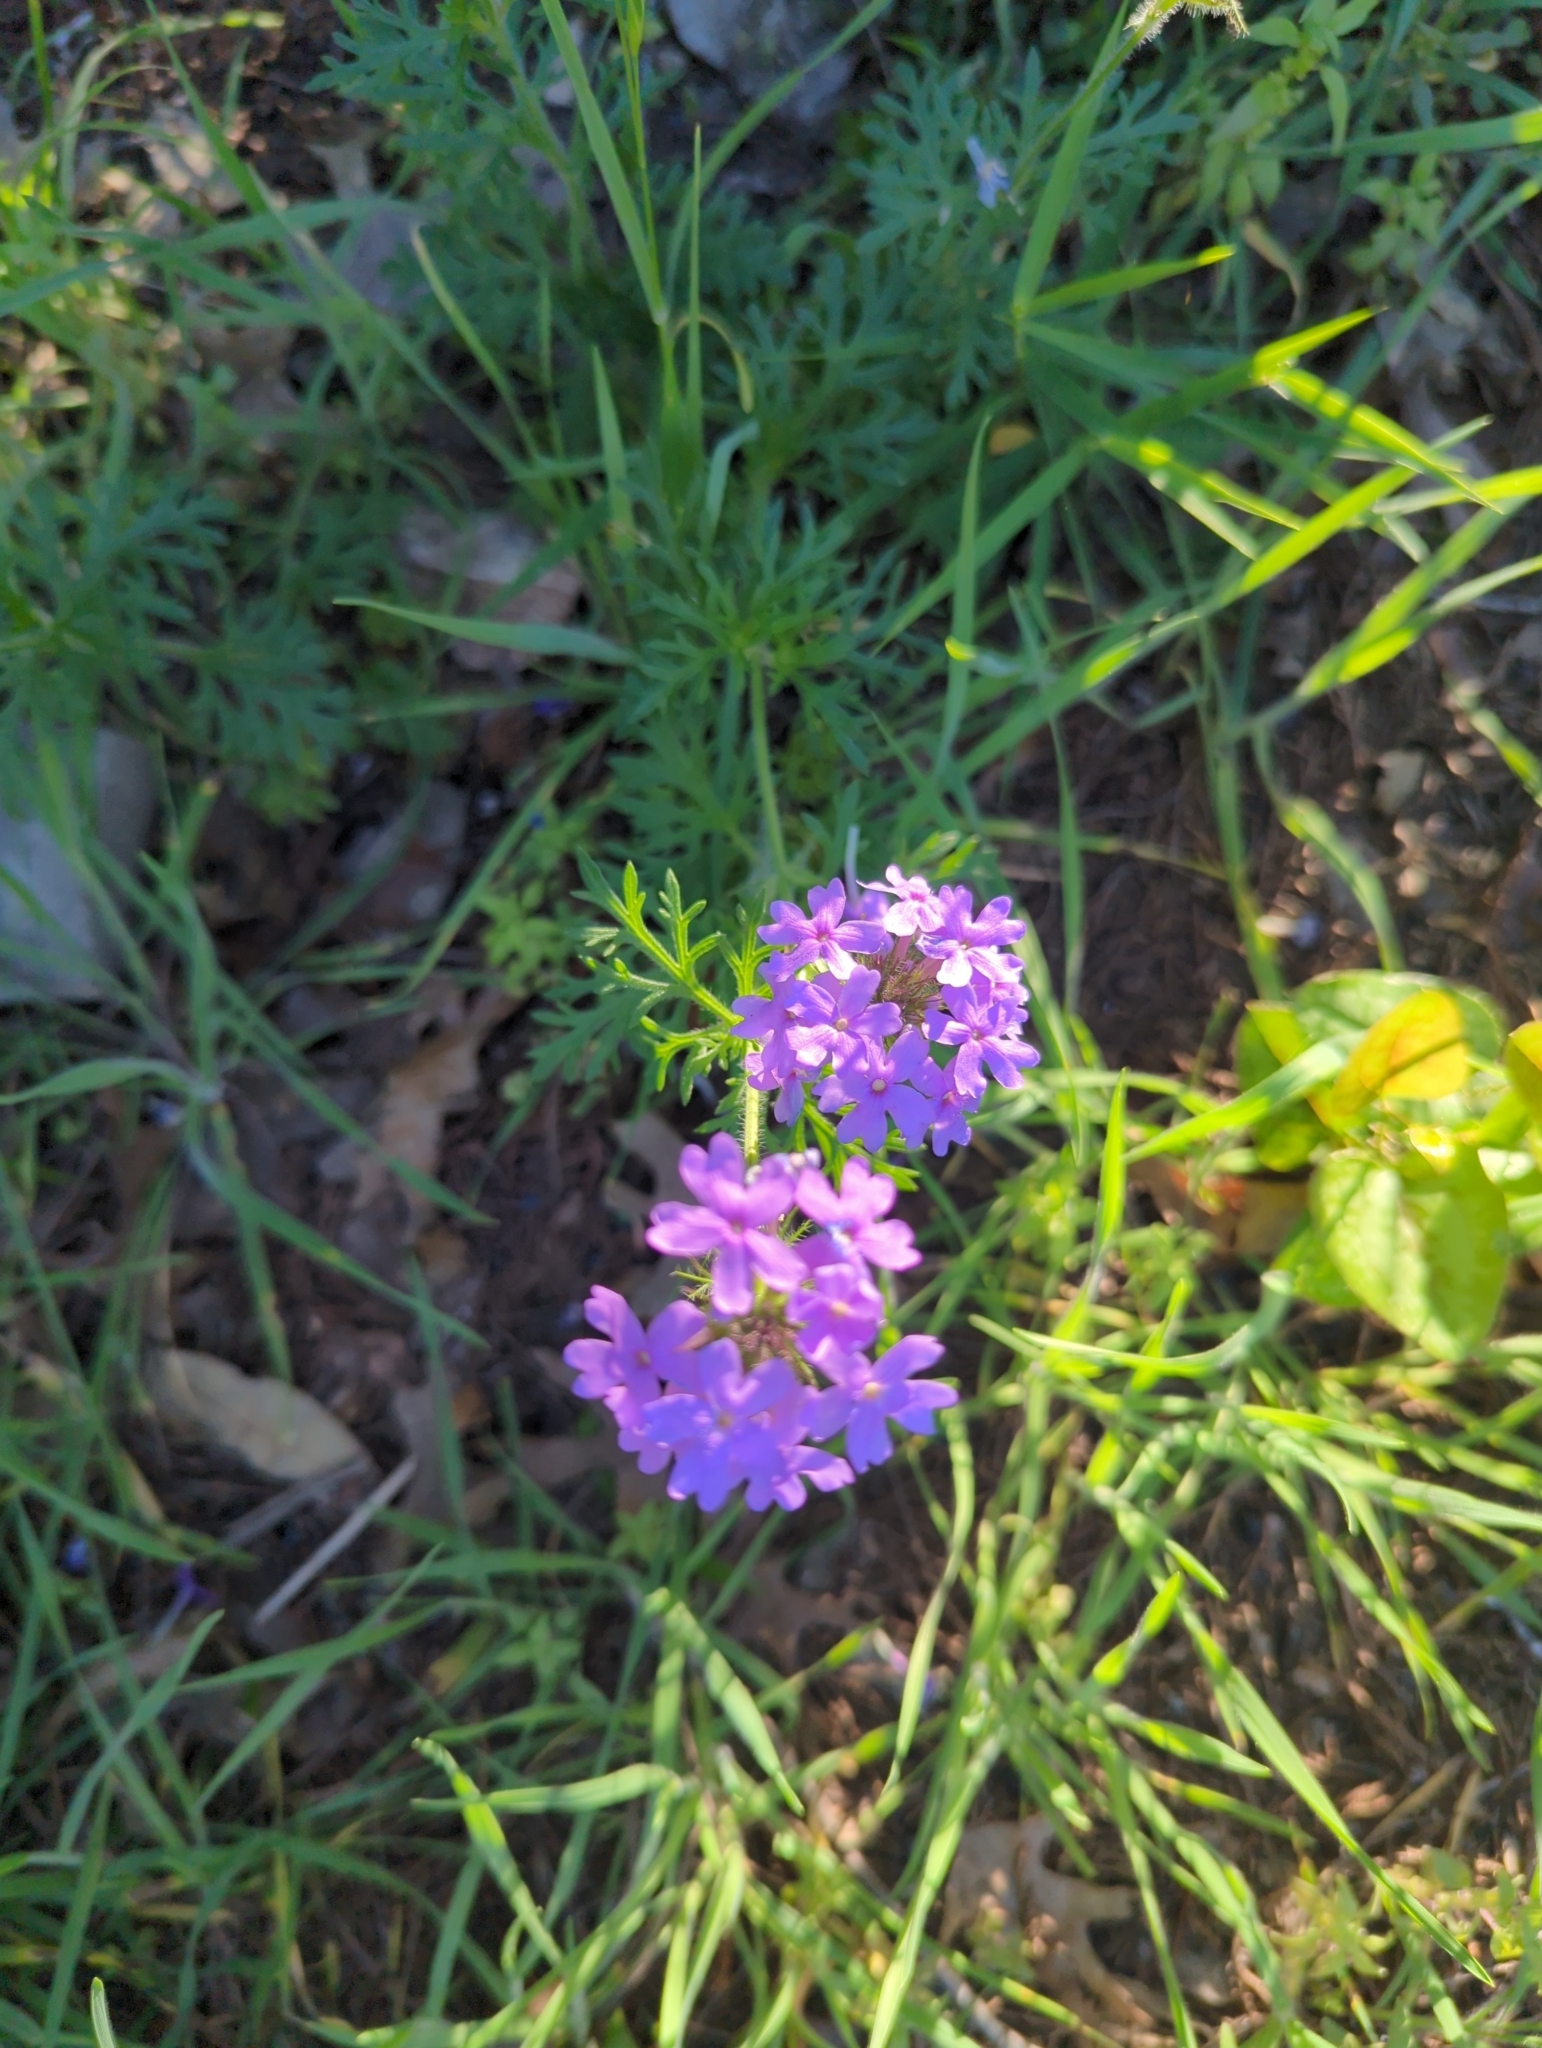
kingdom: Plantae
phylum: Tracheophyta
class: Magnoliopsida
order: Lamiales
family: Verbenaceae
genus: Verbena
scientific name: Verbena bipinnatifida
